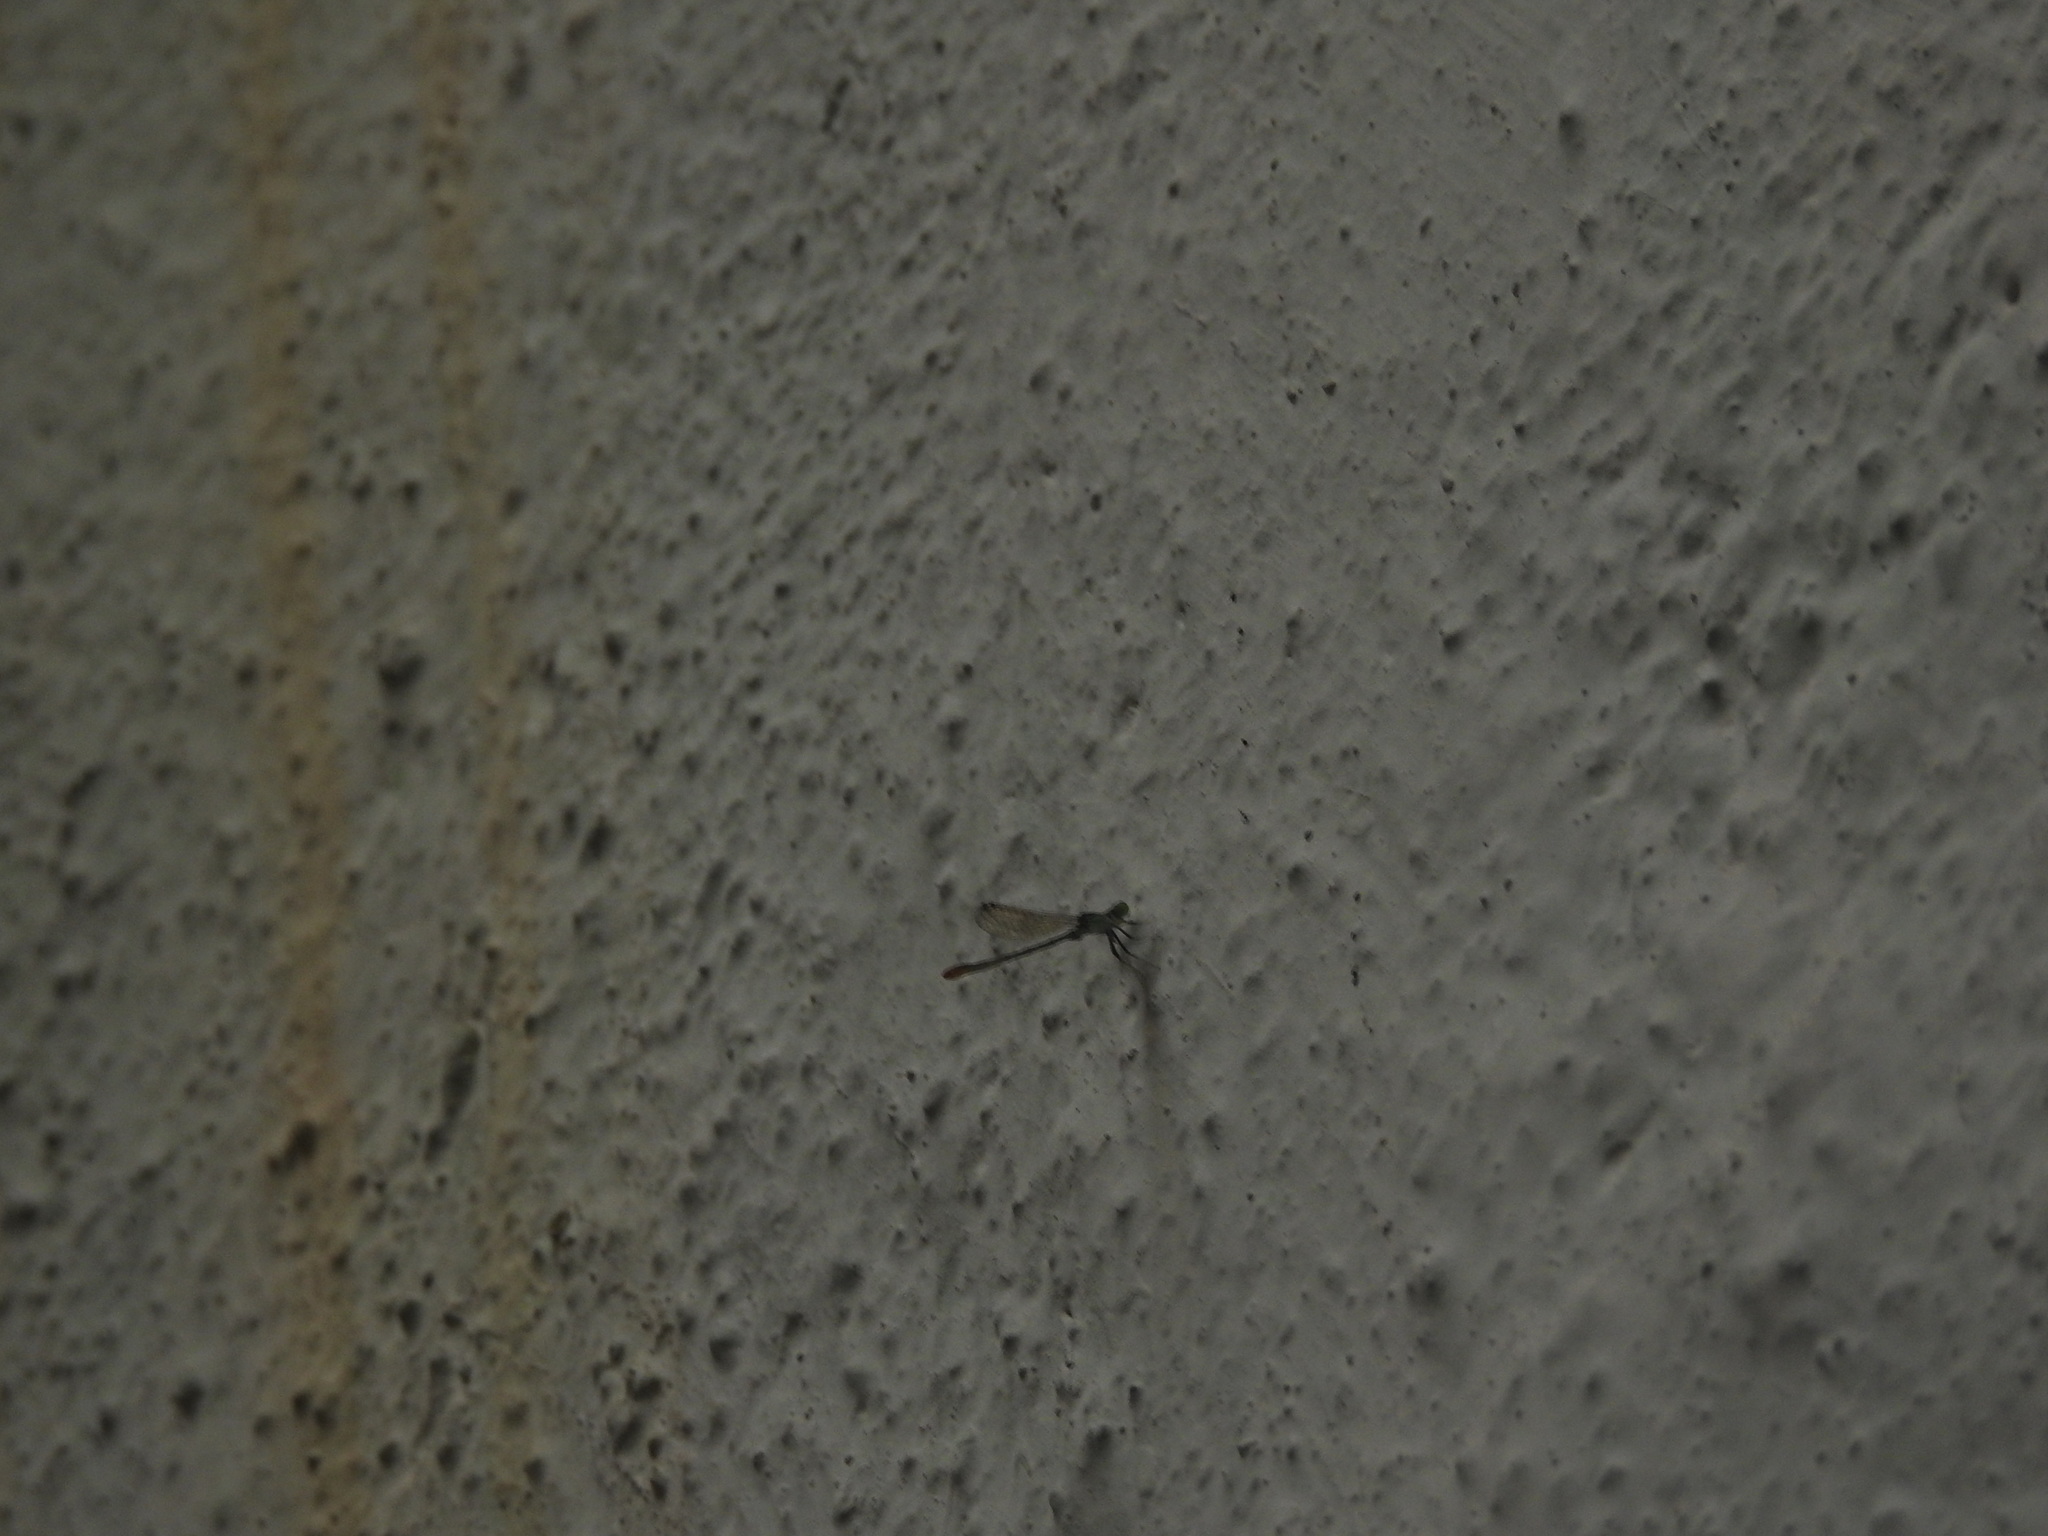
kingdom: Animalia
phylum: Arthropoda
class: Insecta
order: Odonata
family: Coenagrionidae
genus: Agriocnemis
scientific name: Agriocnemis pygmaea
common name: Pygmy wisp
